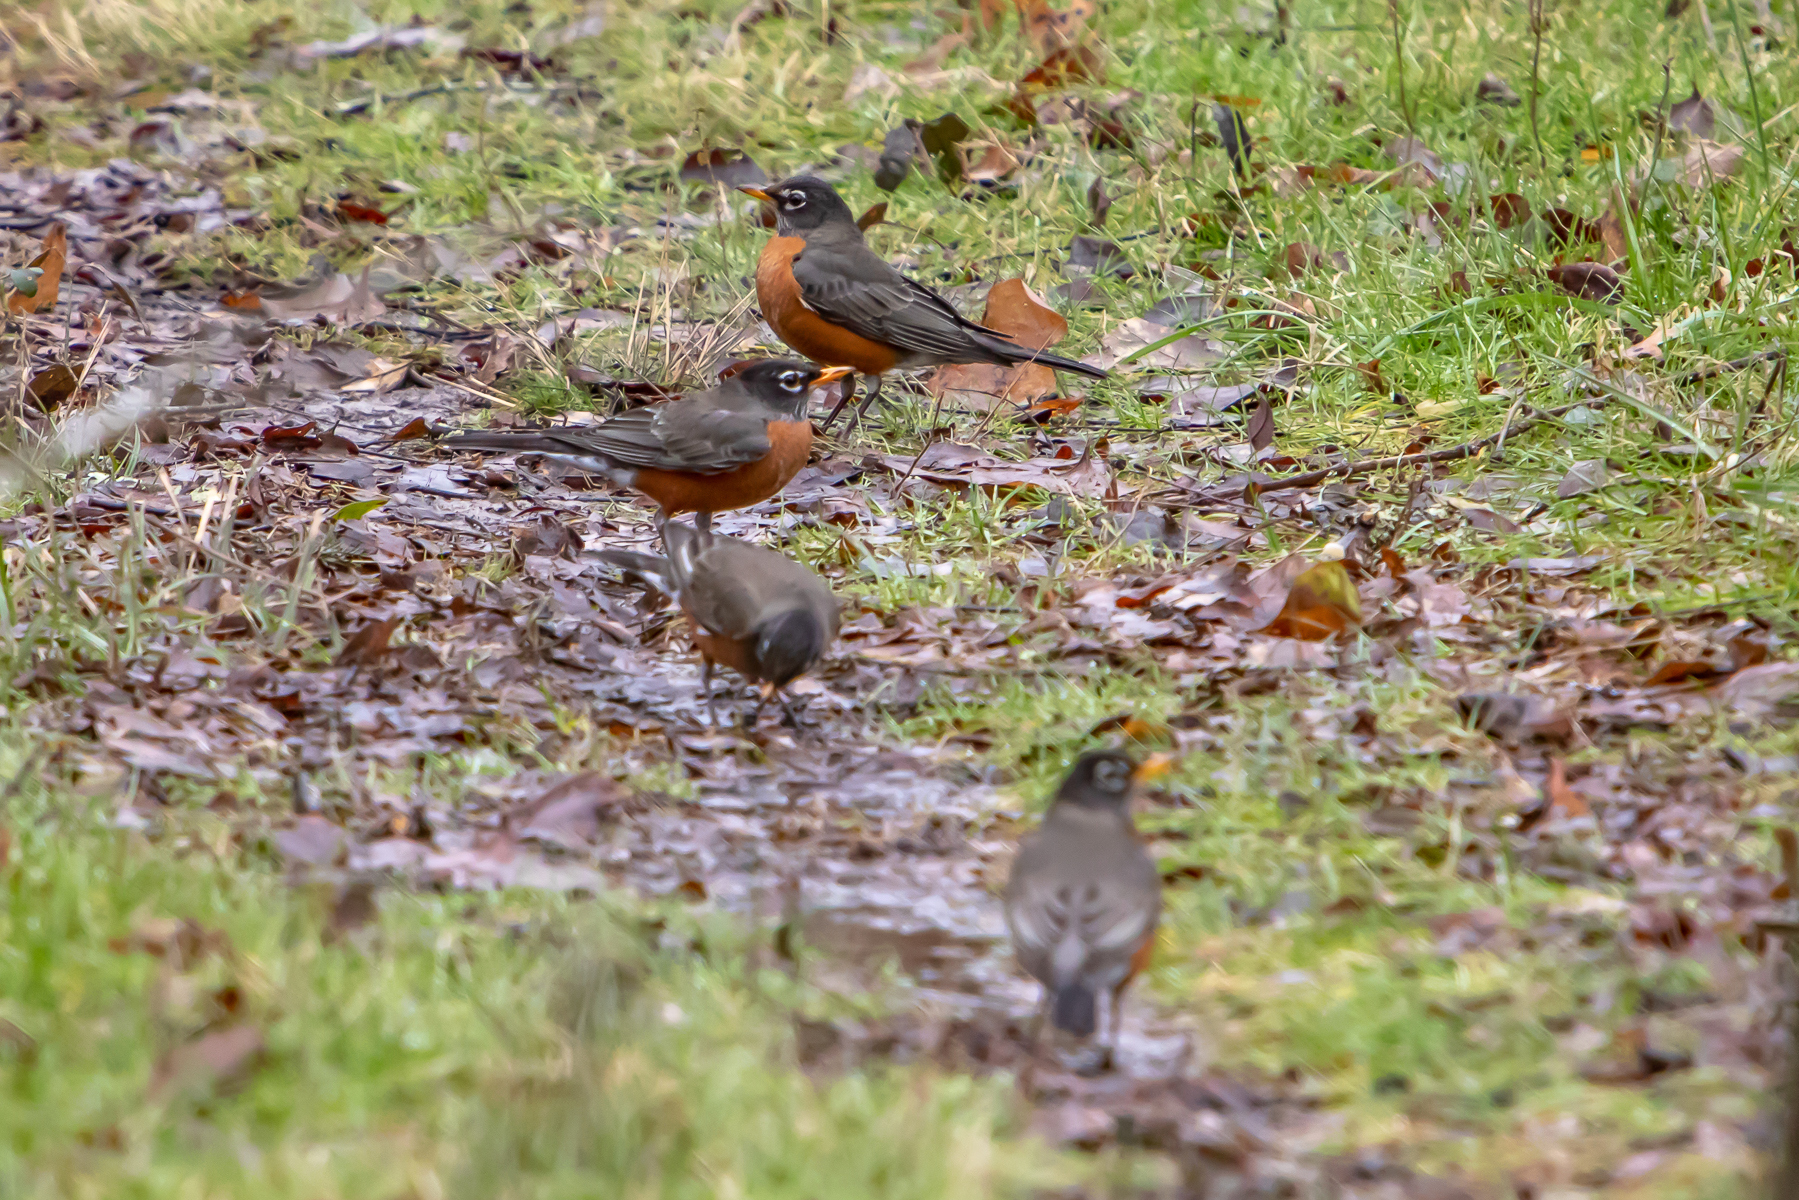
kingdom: Animalia
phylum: Chordata
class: Aves
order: Passeriformes
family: Turdidae
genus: Turdus
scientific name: Turdus migratorius
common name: American robin
